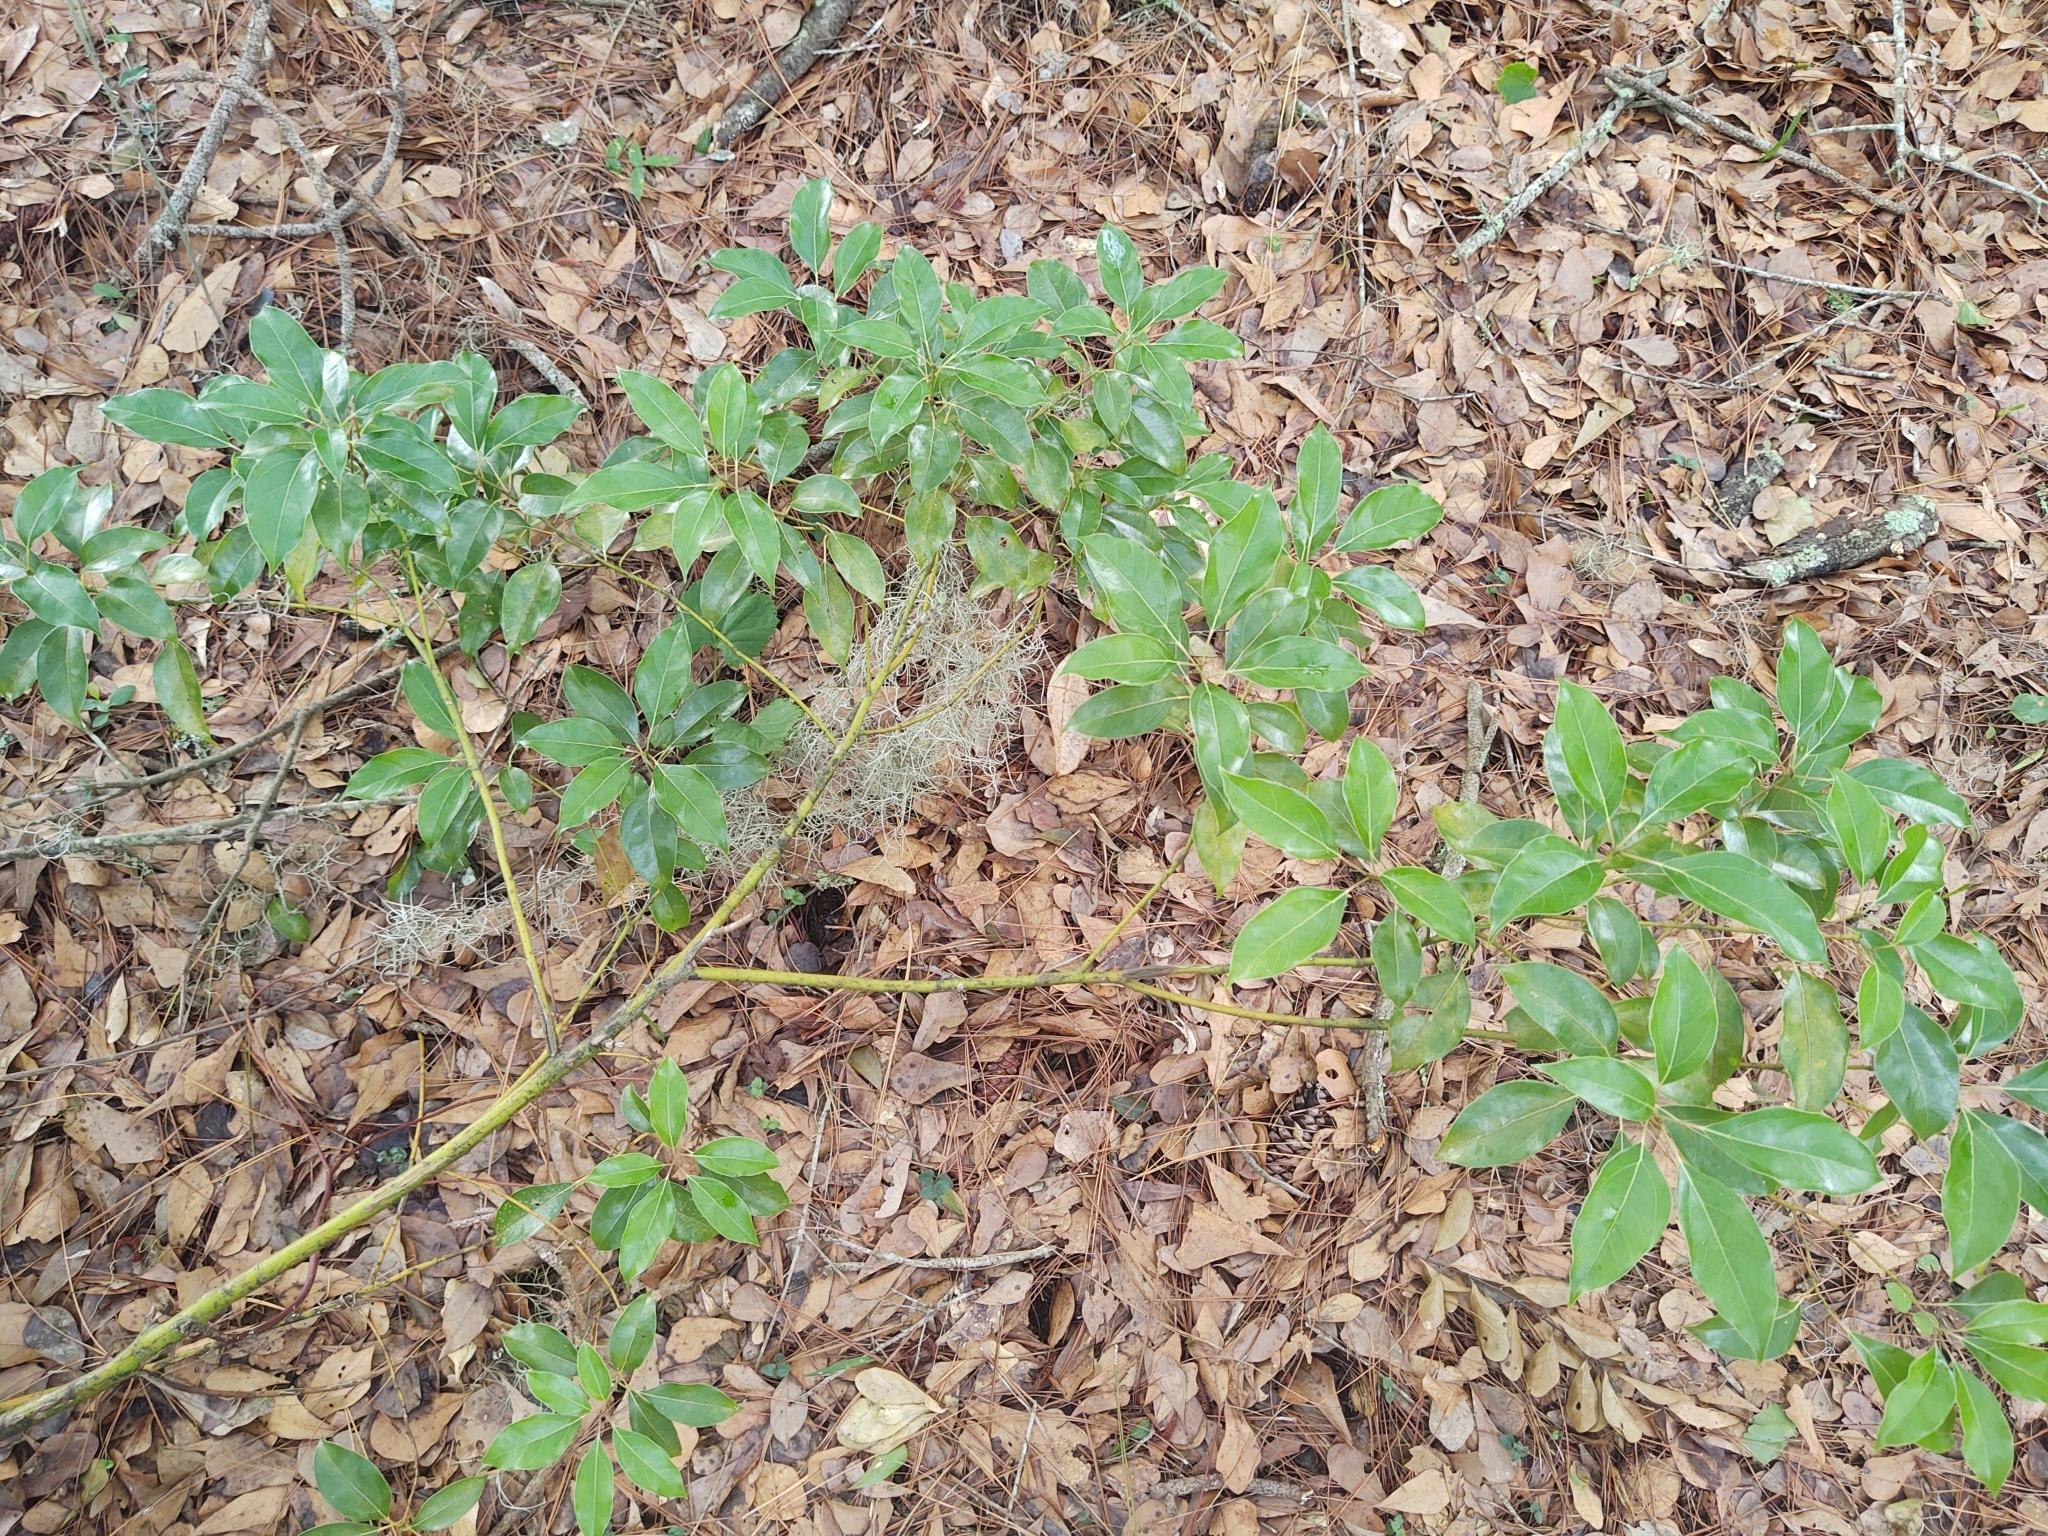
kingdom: Plantae
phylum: Tracheophyta
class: Magnoliopsida
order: Laurales
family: Lauraceae
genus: Cinnamomum
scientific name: Cinnamomum camphora
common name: Camphortree
